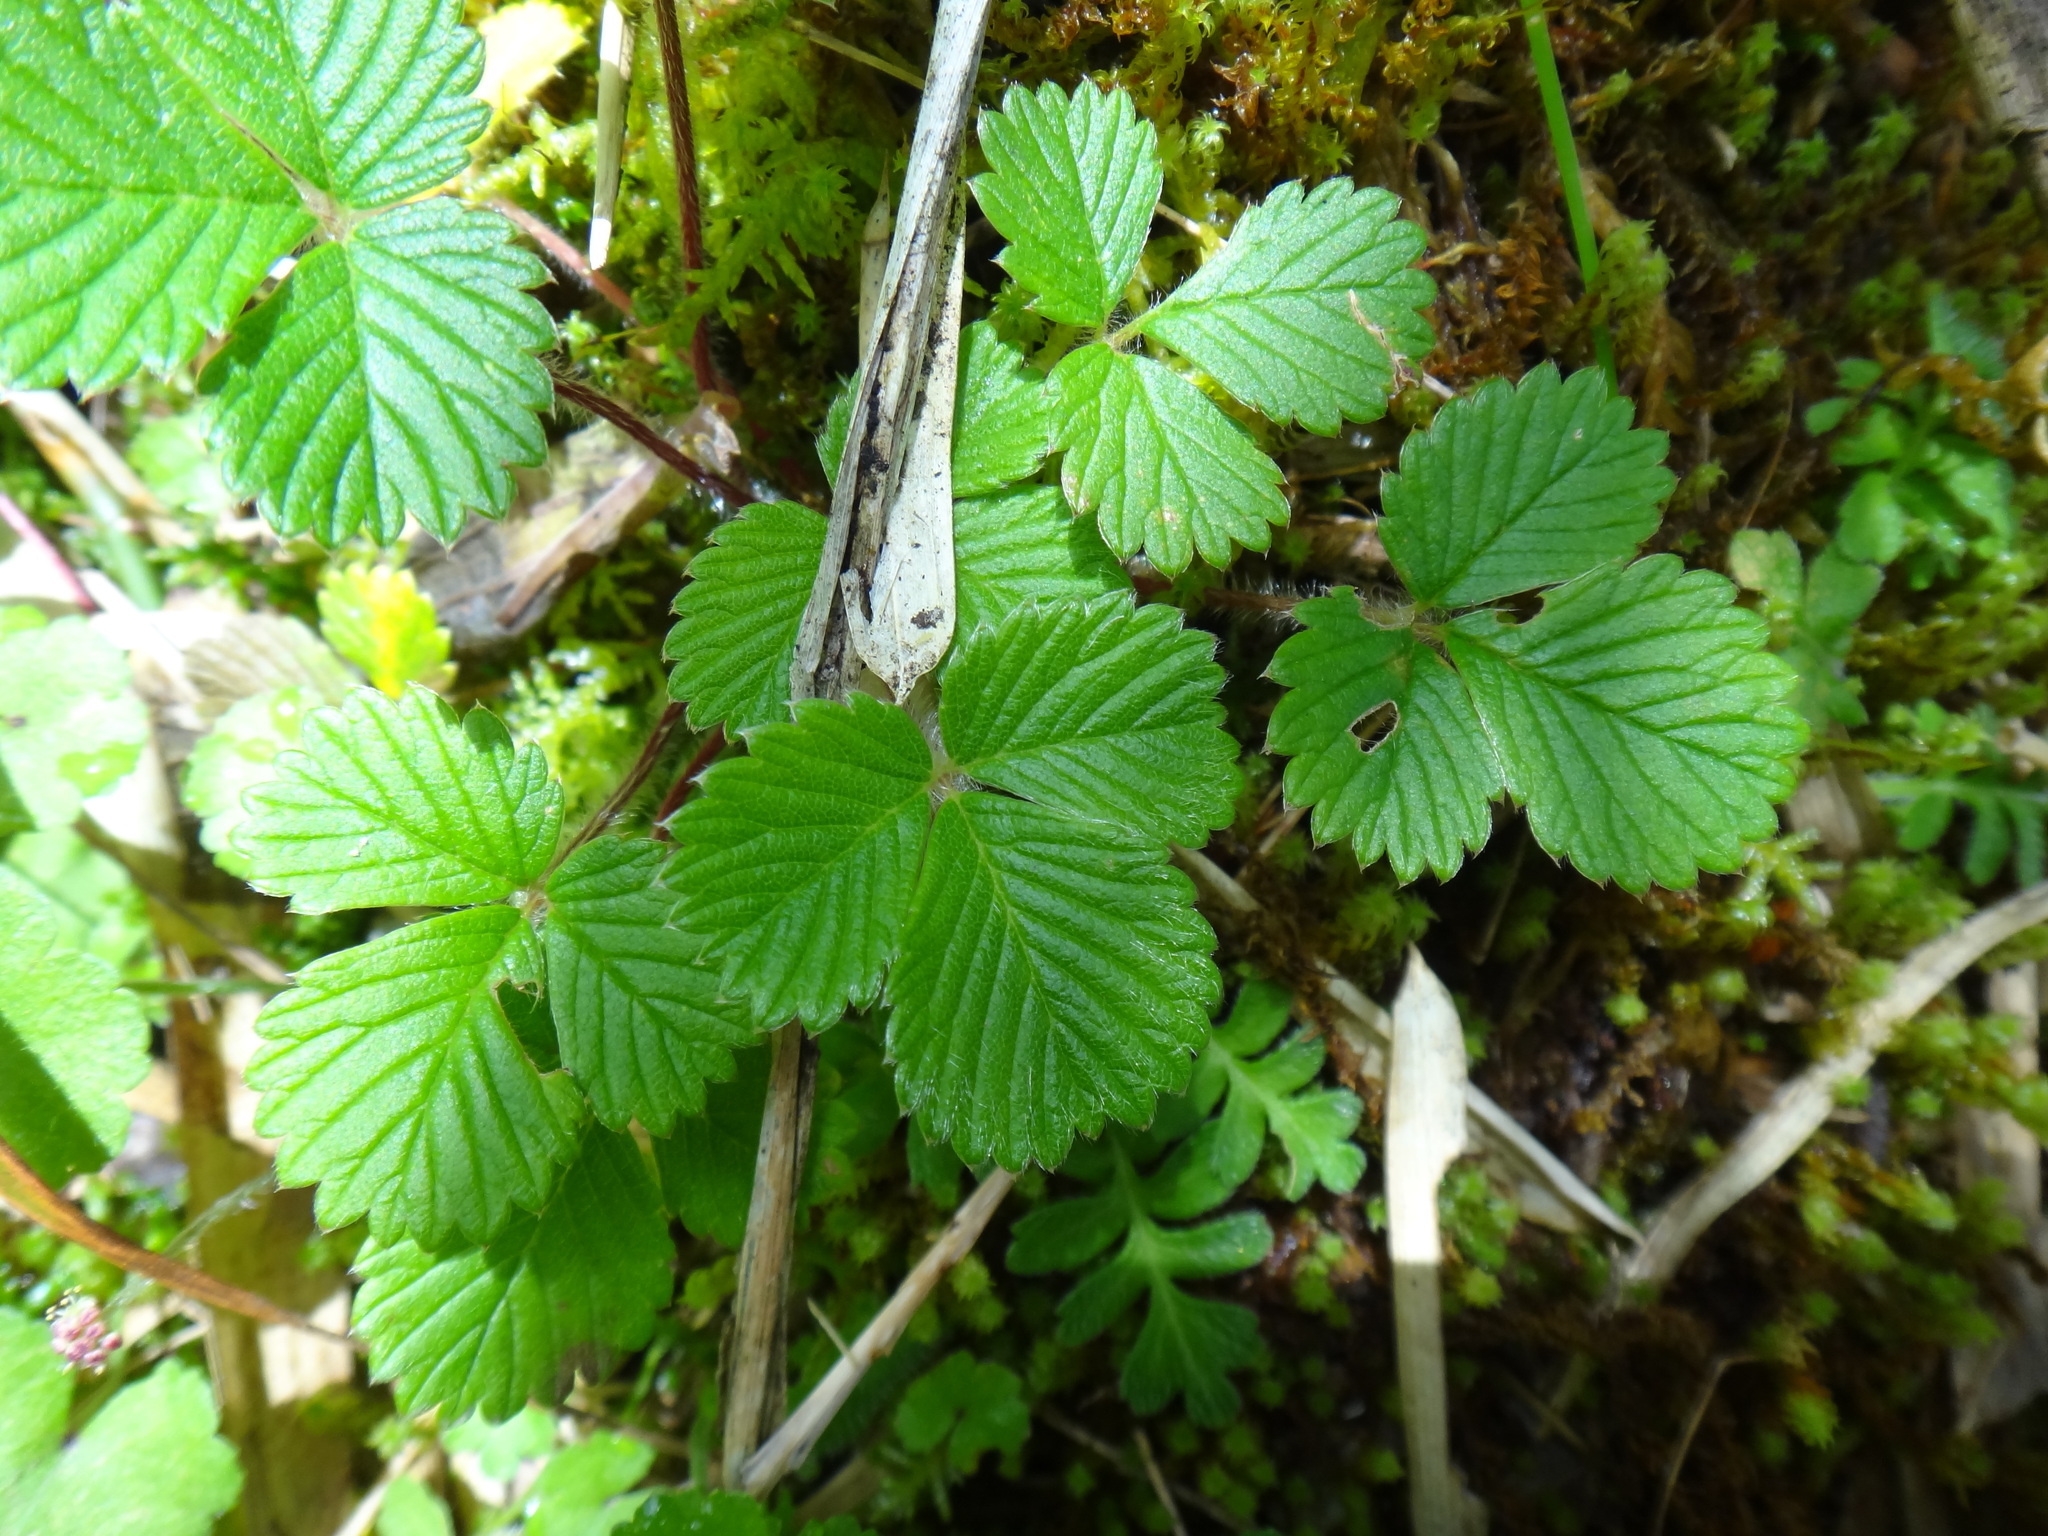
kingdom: Plantae
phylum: Tracheophyta
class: Magnoliopsida
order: Rosales
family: Rosaceae
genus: Fragaria
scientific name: Fragaria nilgerrensis
